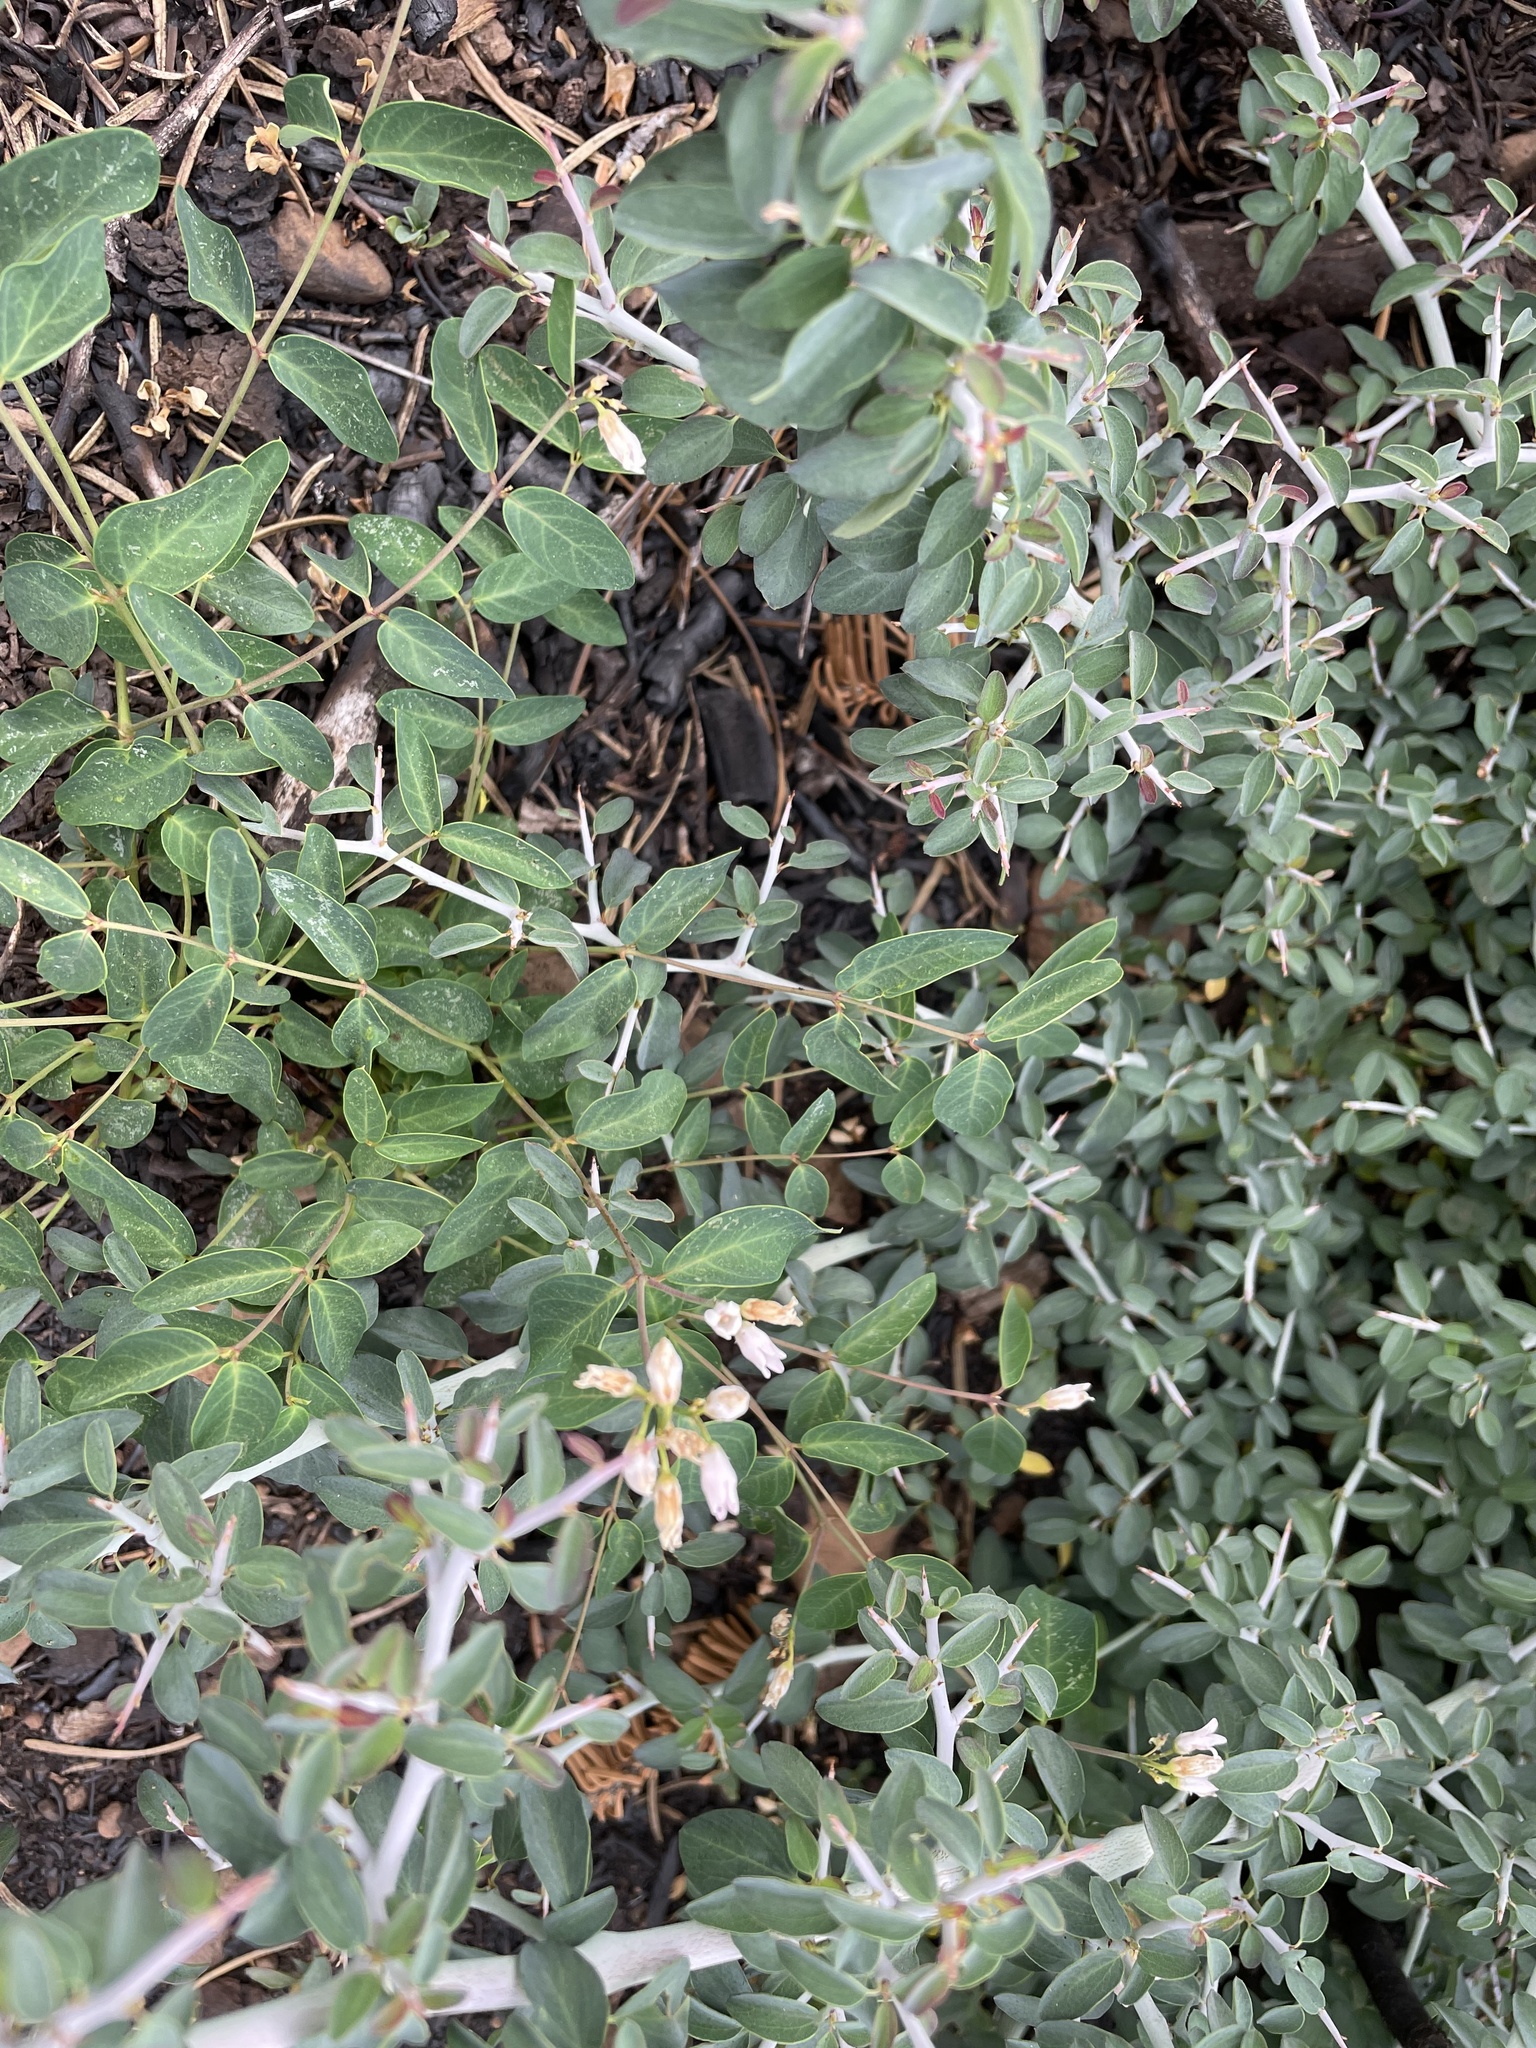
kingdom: Plantae
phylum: Tracheophyta
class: Magnoliopsida
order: Gentianales
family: Apocynaceae
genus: Apocynum
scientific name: Apocynum androsaemifolium
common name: Spreading dogbane
